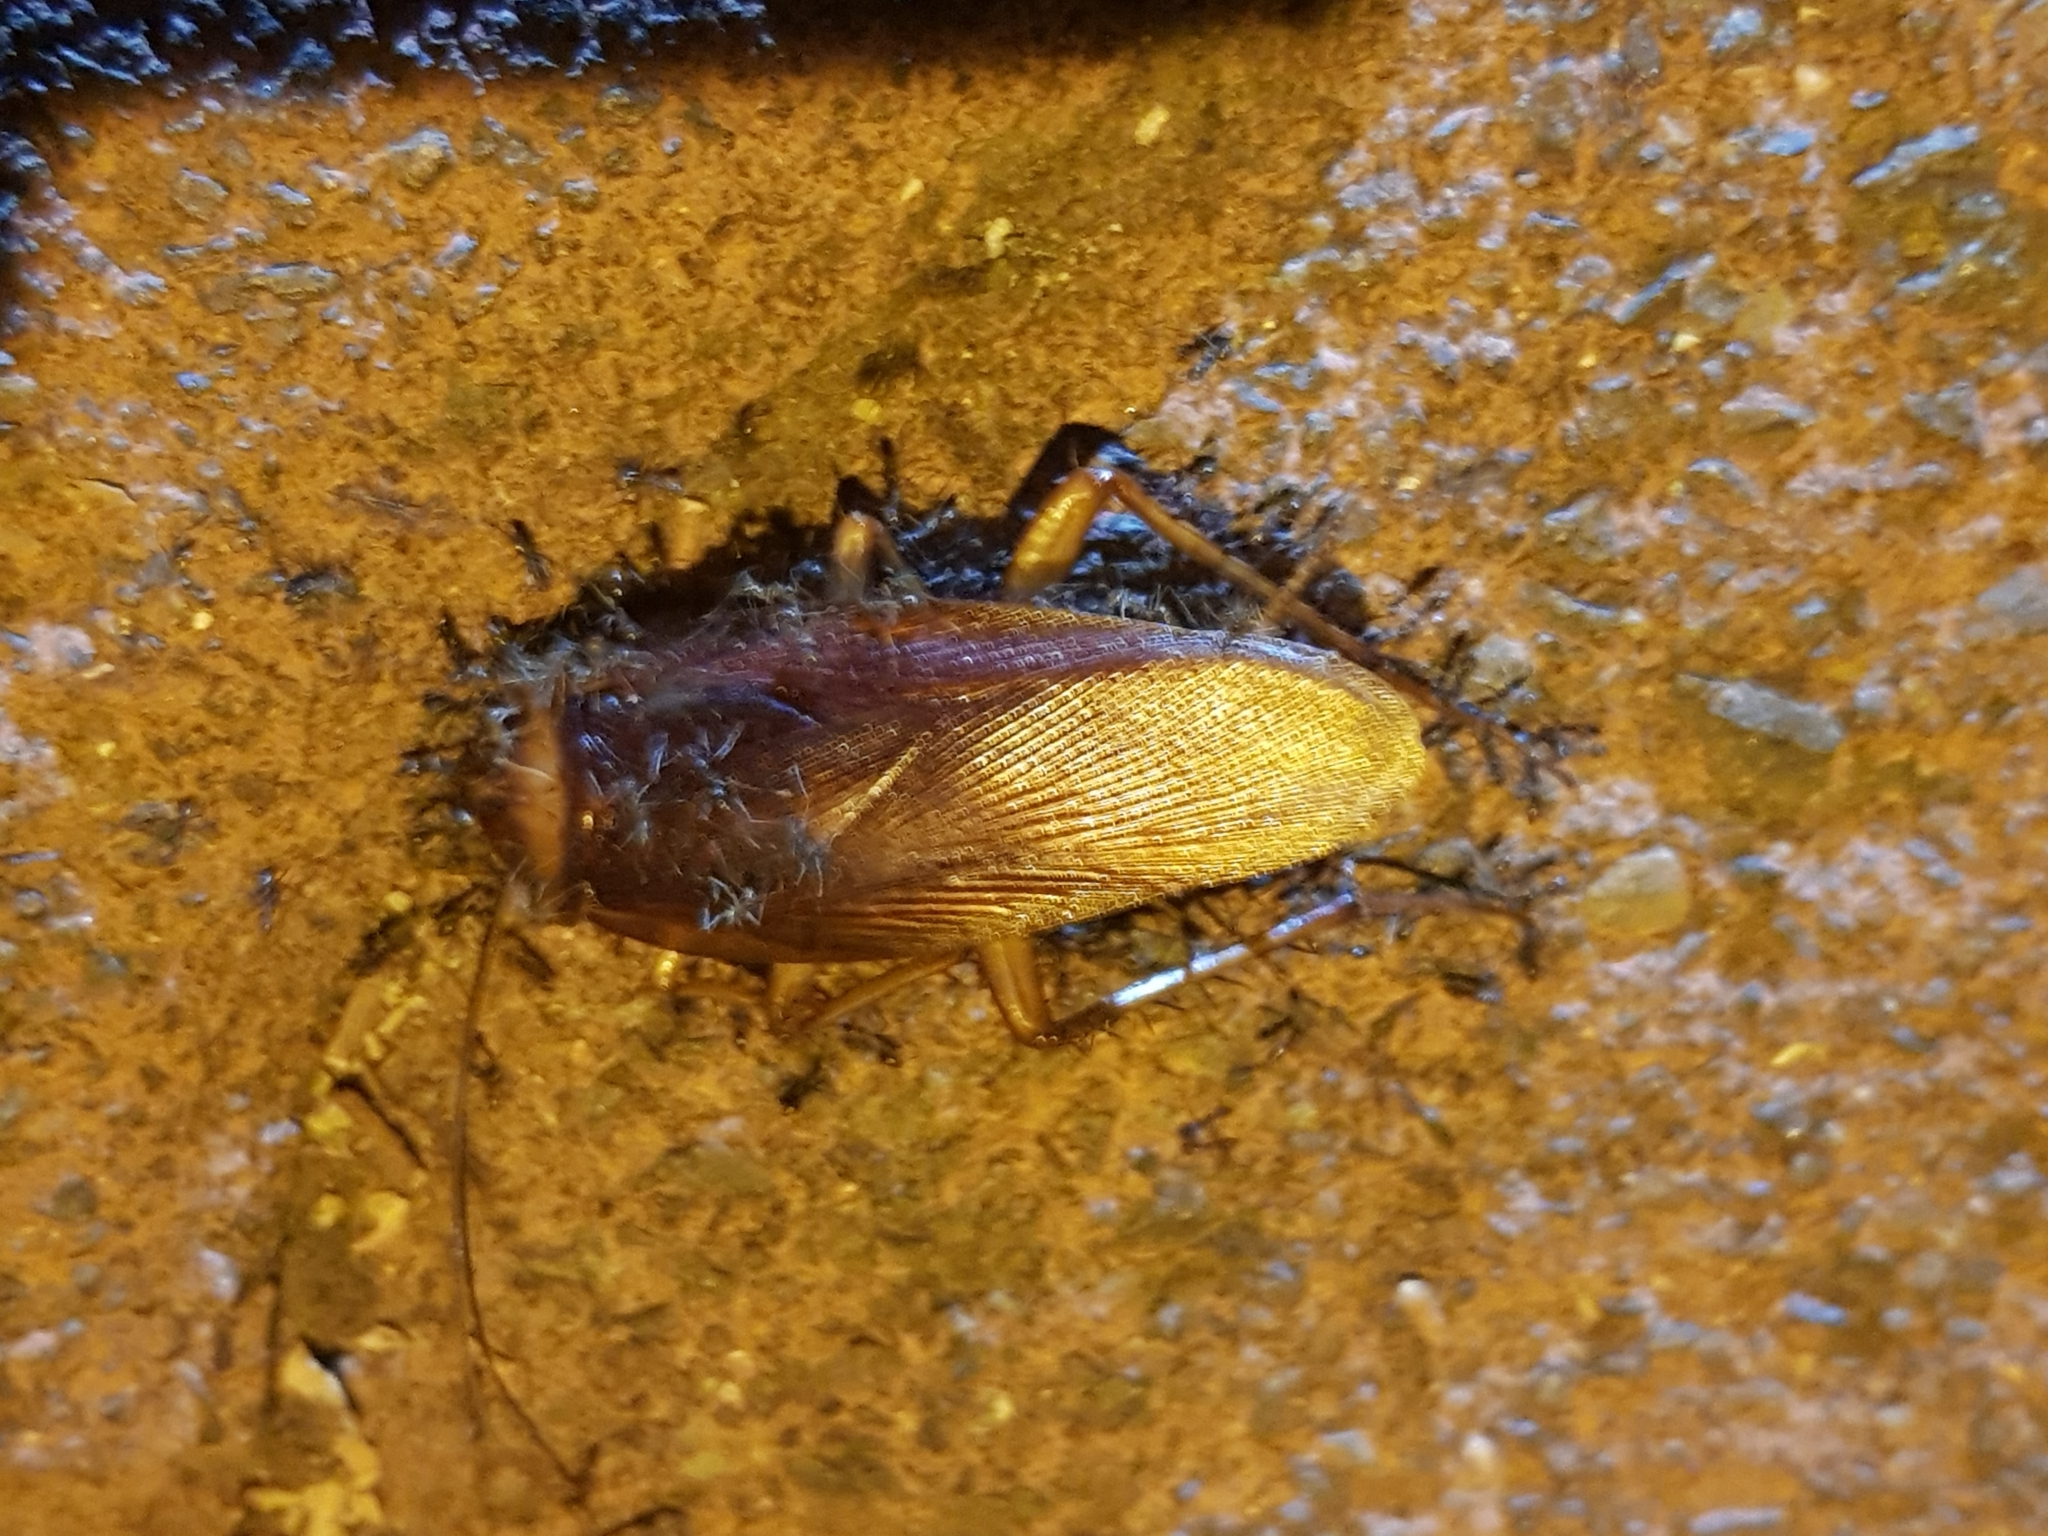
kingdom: Animalia
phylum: Arthropoda
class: Insecta
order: Blattodea
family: Blattidae
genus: Periplaneta
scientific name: Periplaneta americana
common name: American cockroach
